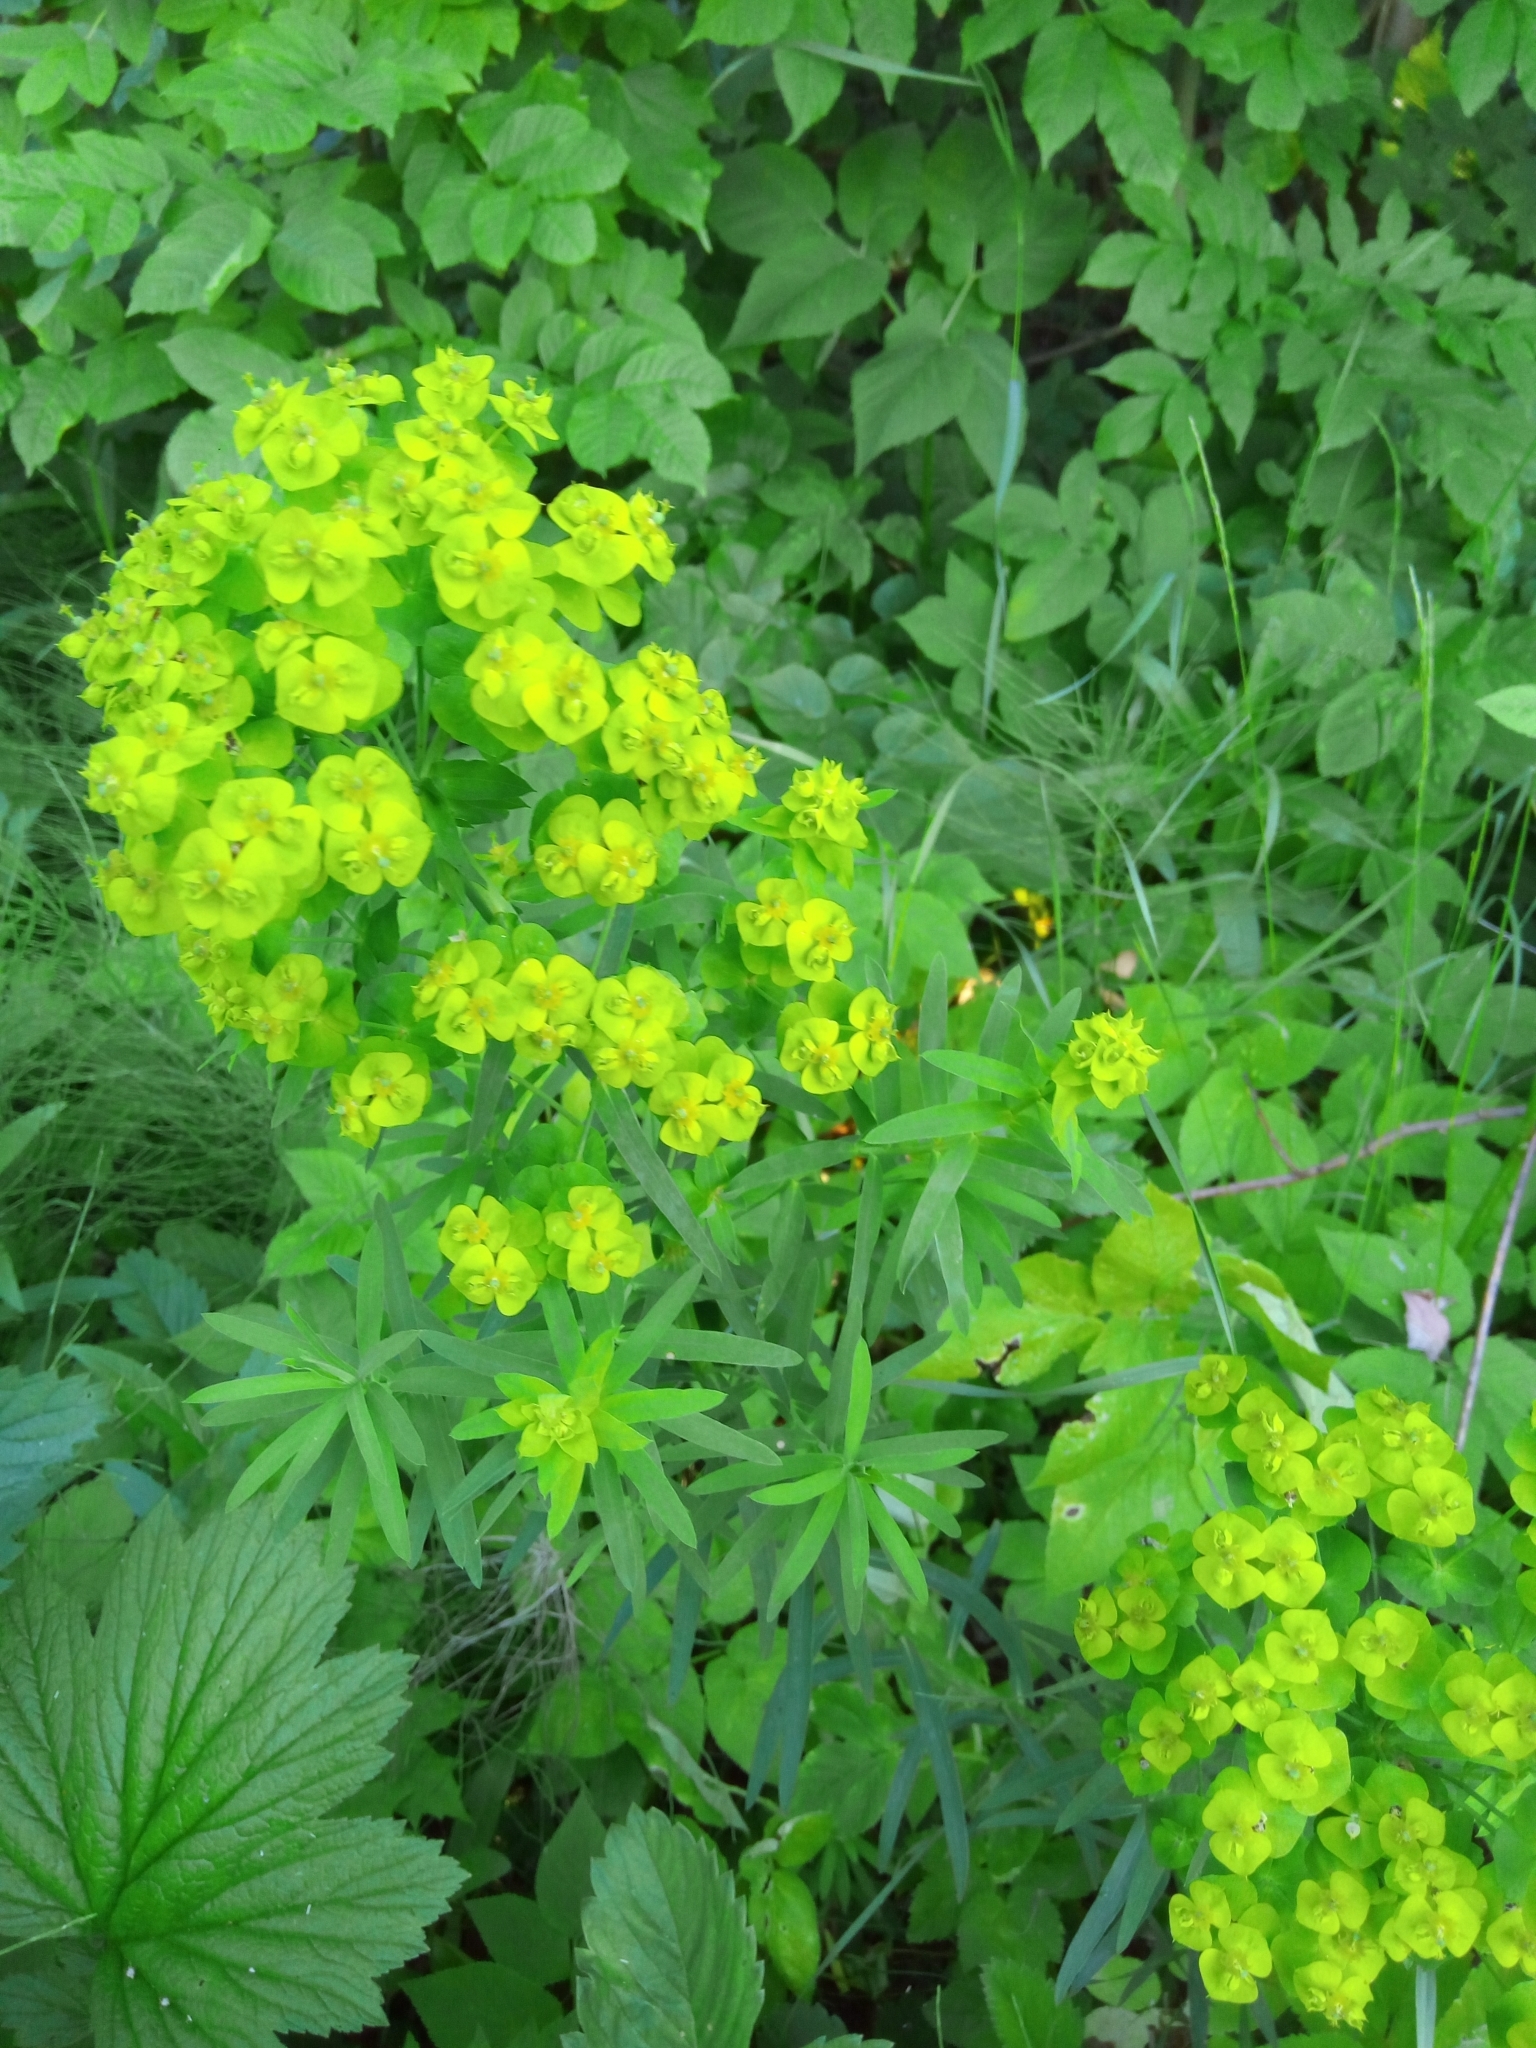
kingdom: Plantae
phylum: Tracheophyta
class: Magnoliopsida
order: Malpighiales
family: Euphorbiaceae
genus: Euphorbia
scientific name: Euphorbia virgata
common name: Leafy spurge
